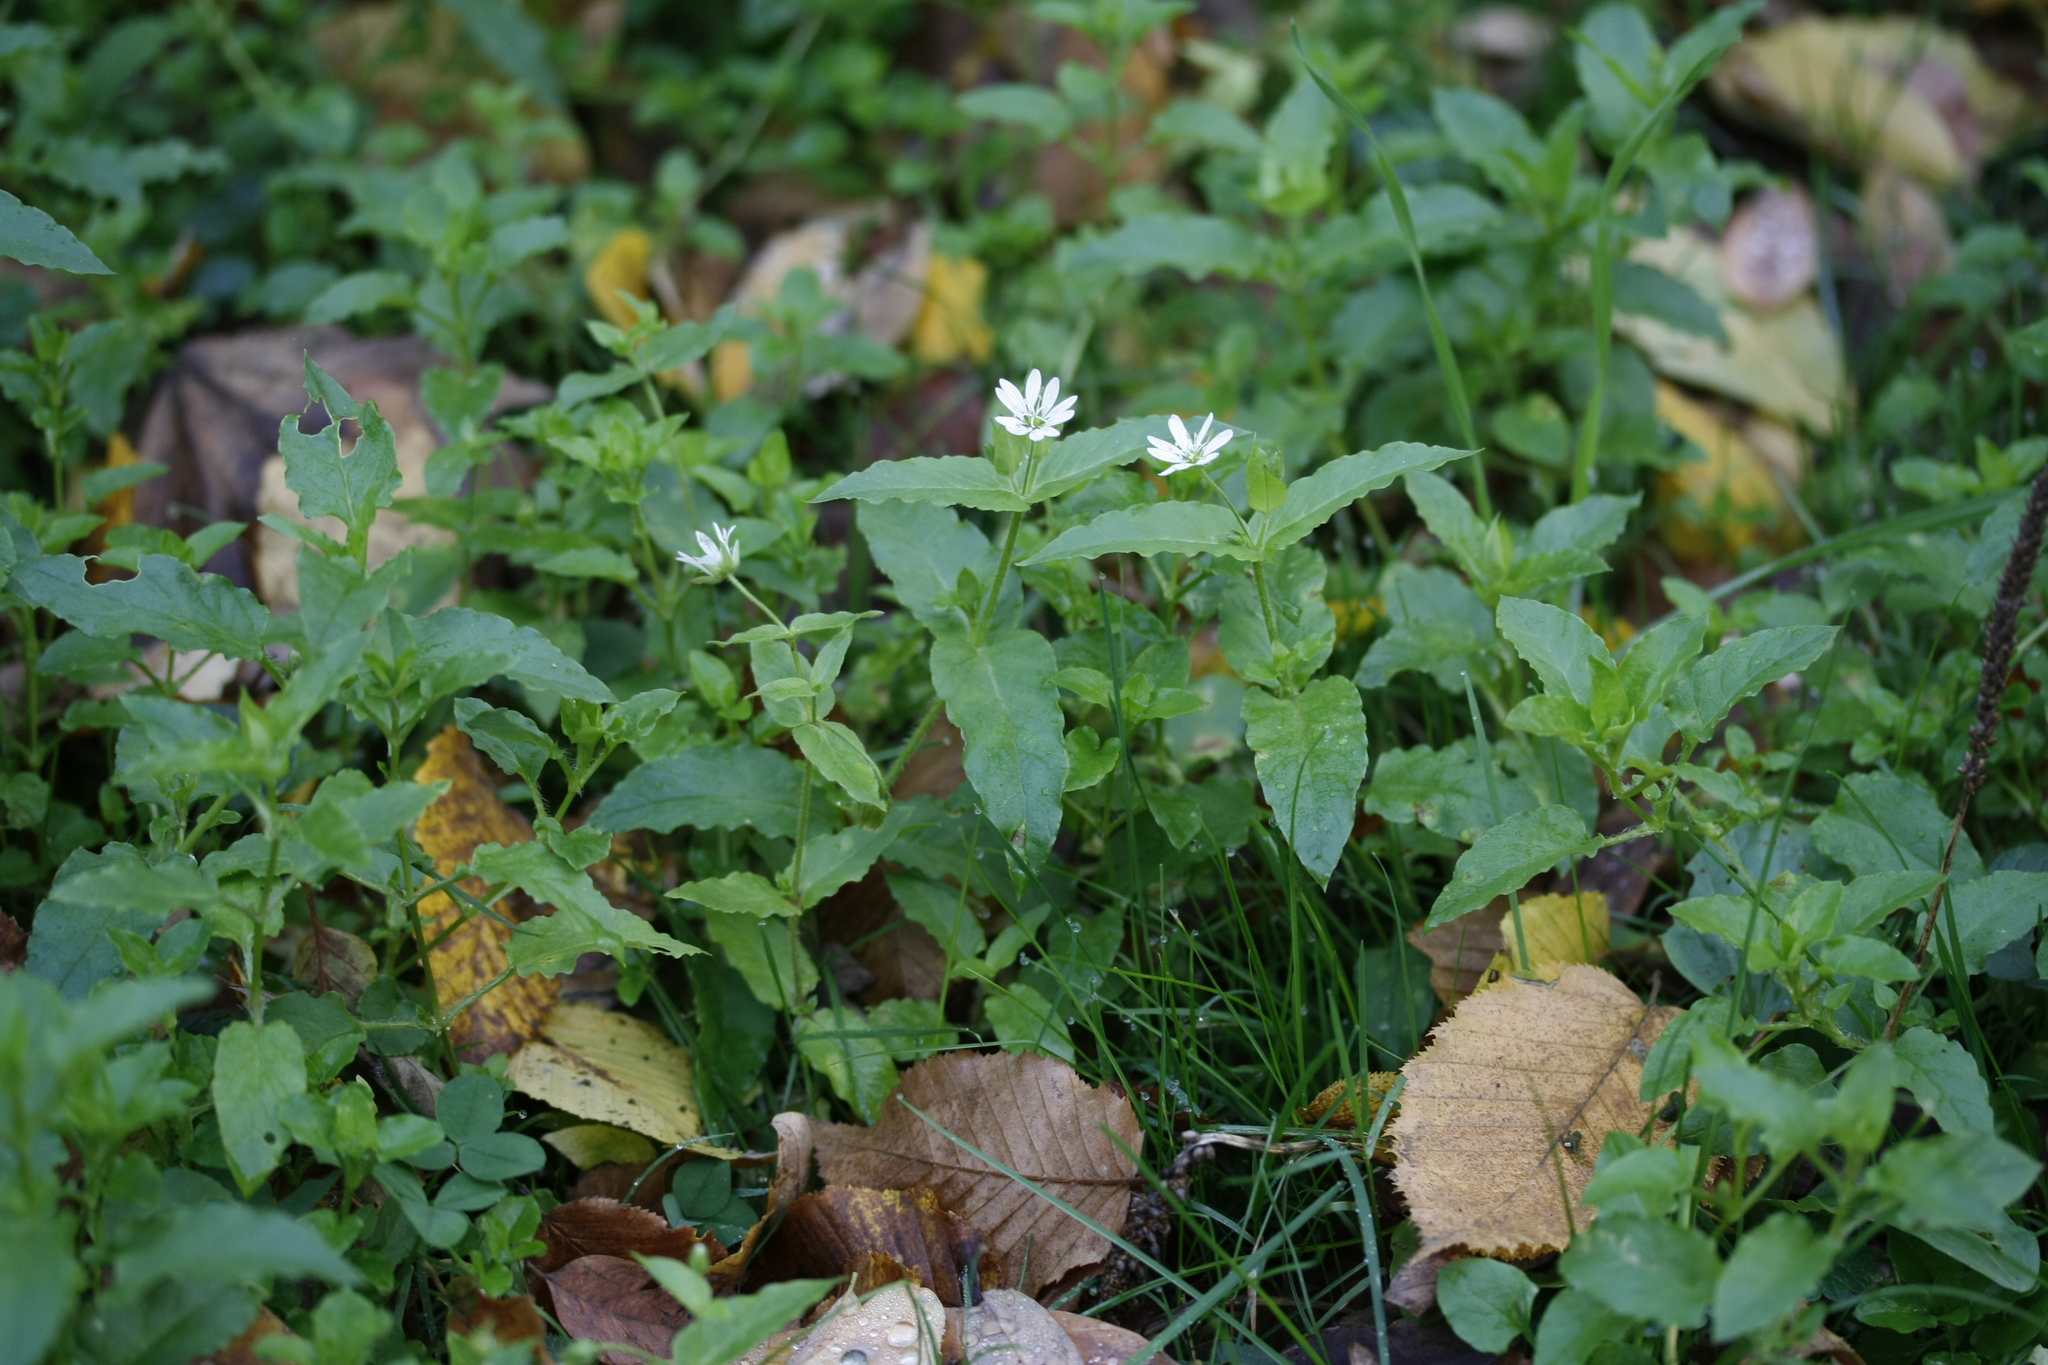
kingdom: Plantae
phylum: Tracheophyta
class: Magnoliopsida
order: Caryophyllales
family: Caryophyllaceae
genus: Stellaria
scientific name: Stellaria aquatica
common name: Water chickweed
